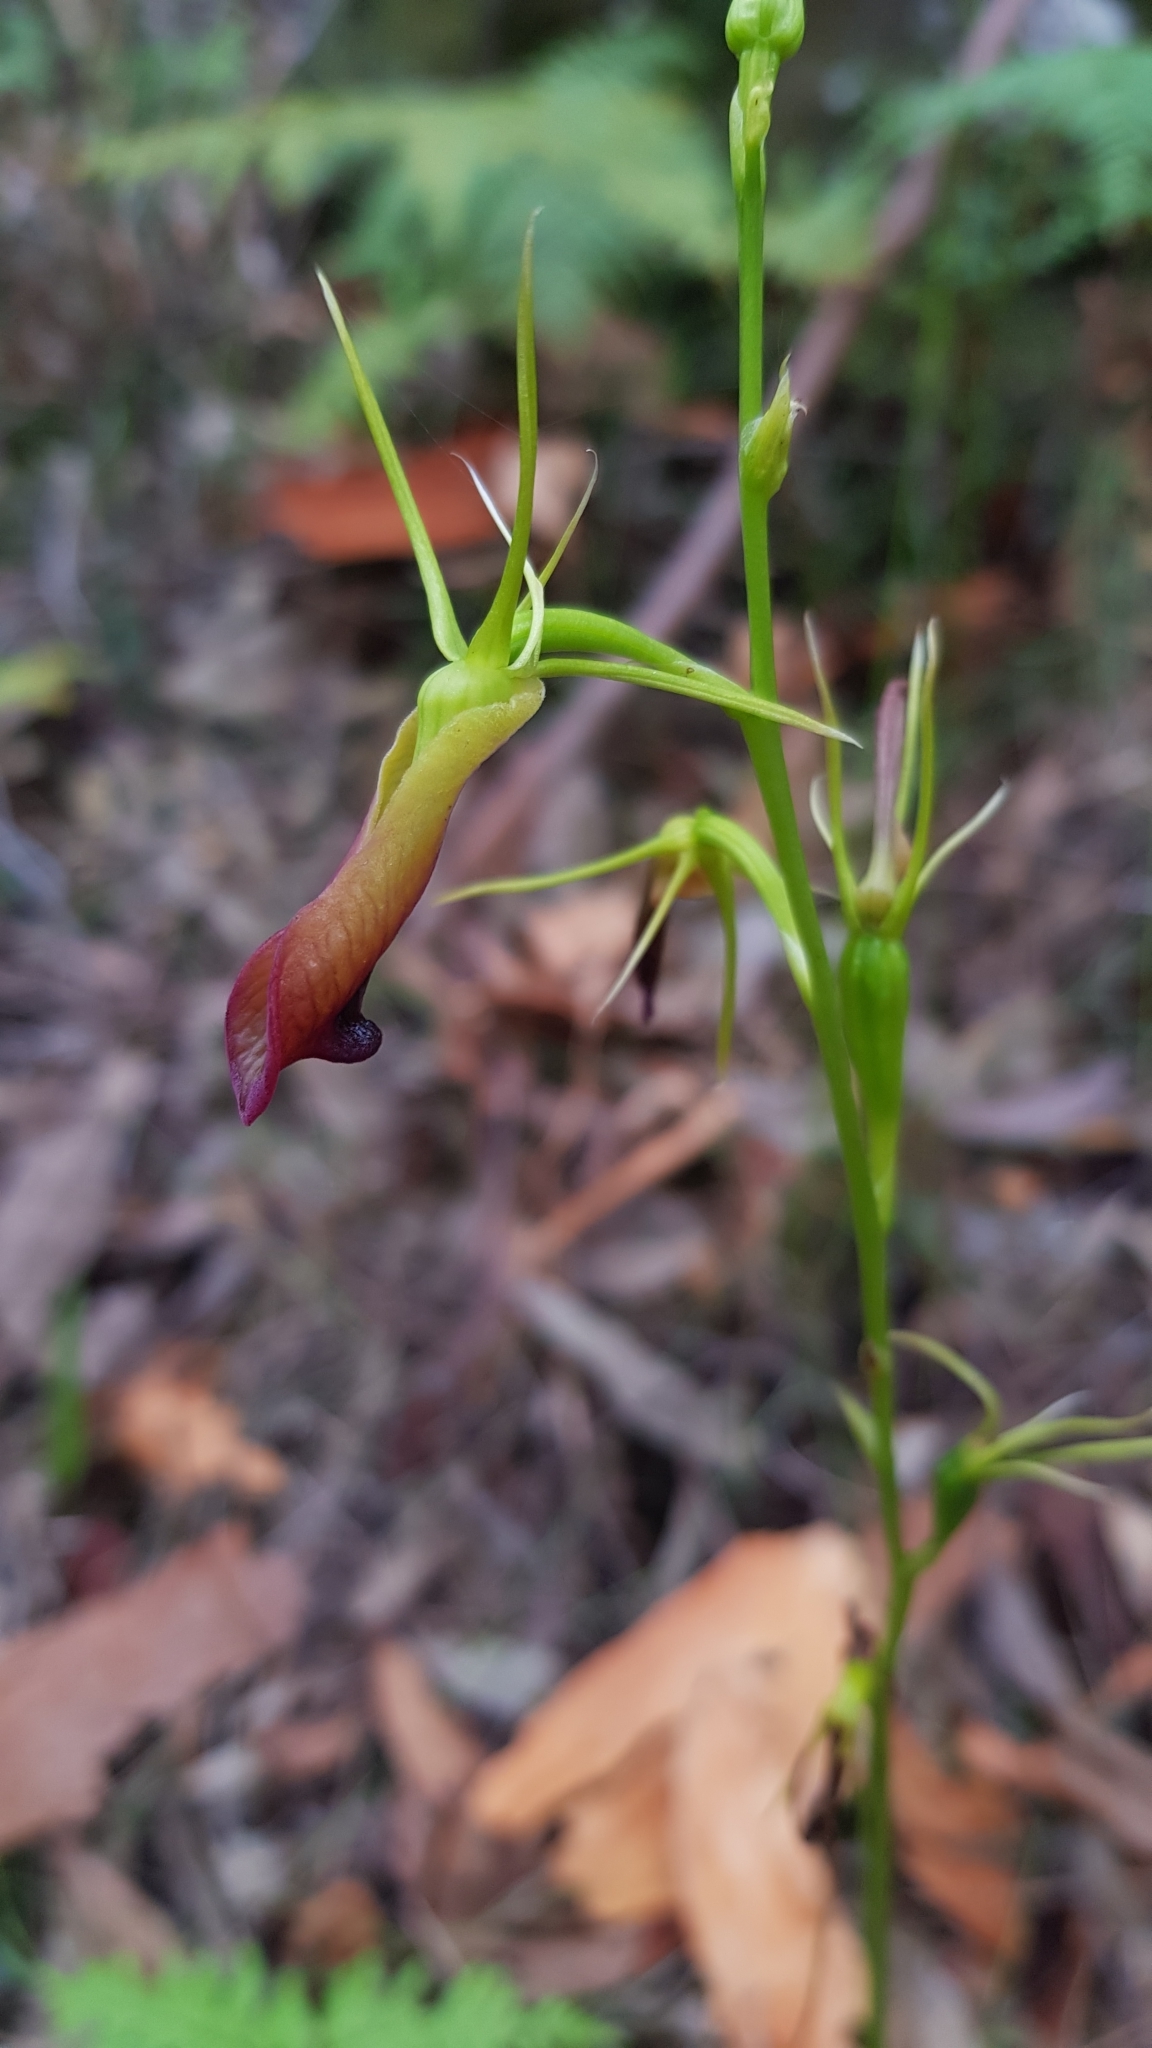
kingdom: Plantae
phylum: Tracheophyta
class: Liliopsida
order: Asparagales
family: Orchidaceae
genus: Cryptostylis
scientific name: Cryptostylis subulata
